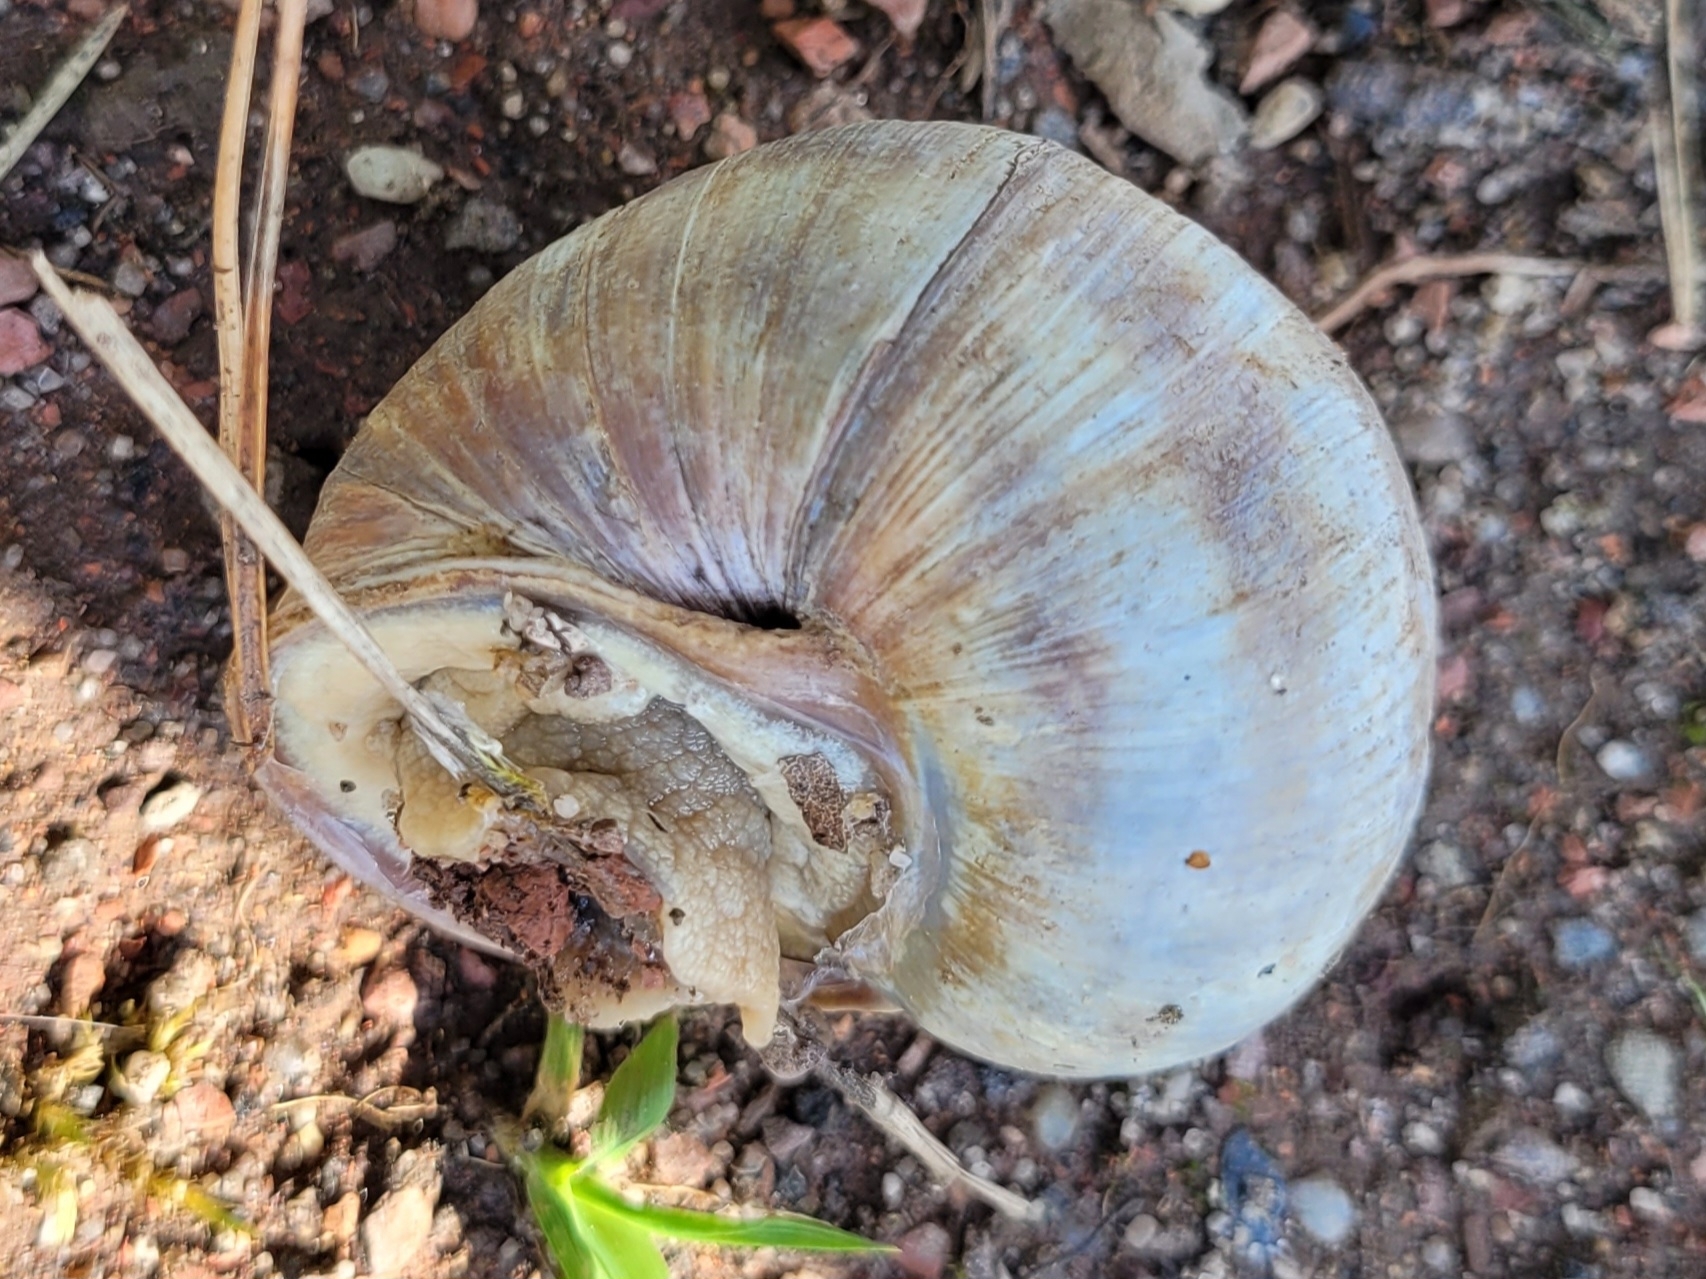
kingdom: Animalia
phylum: Mollusca
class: Gastropoda
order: Stylommatophora
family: Helicidae
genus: Helix
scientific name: Helix pomatia
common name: Roman snail
